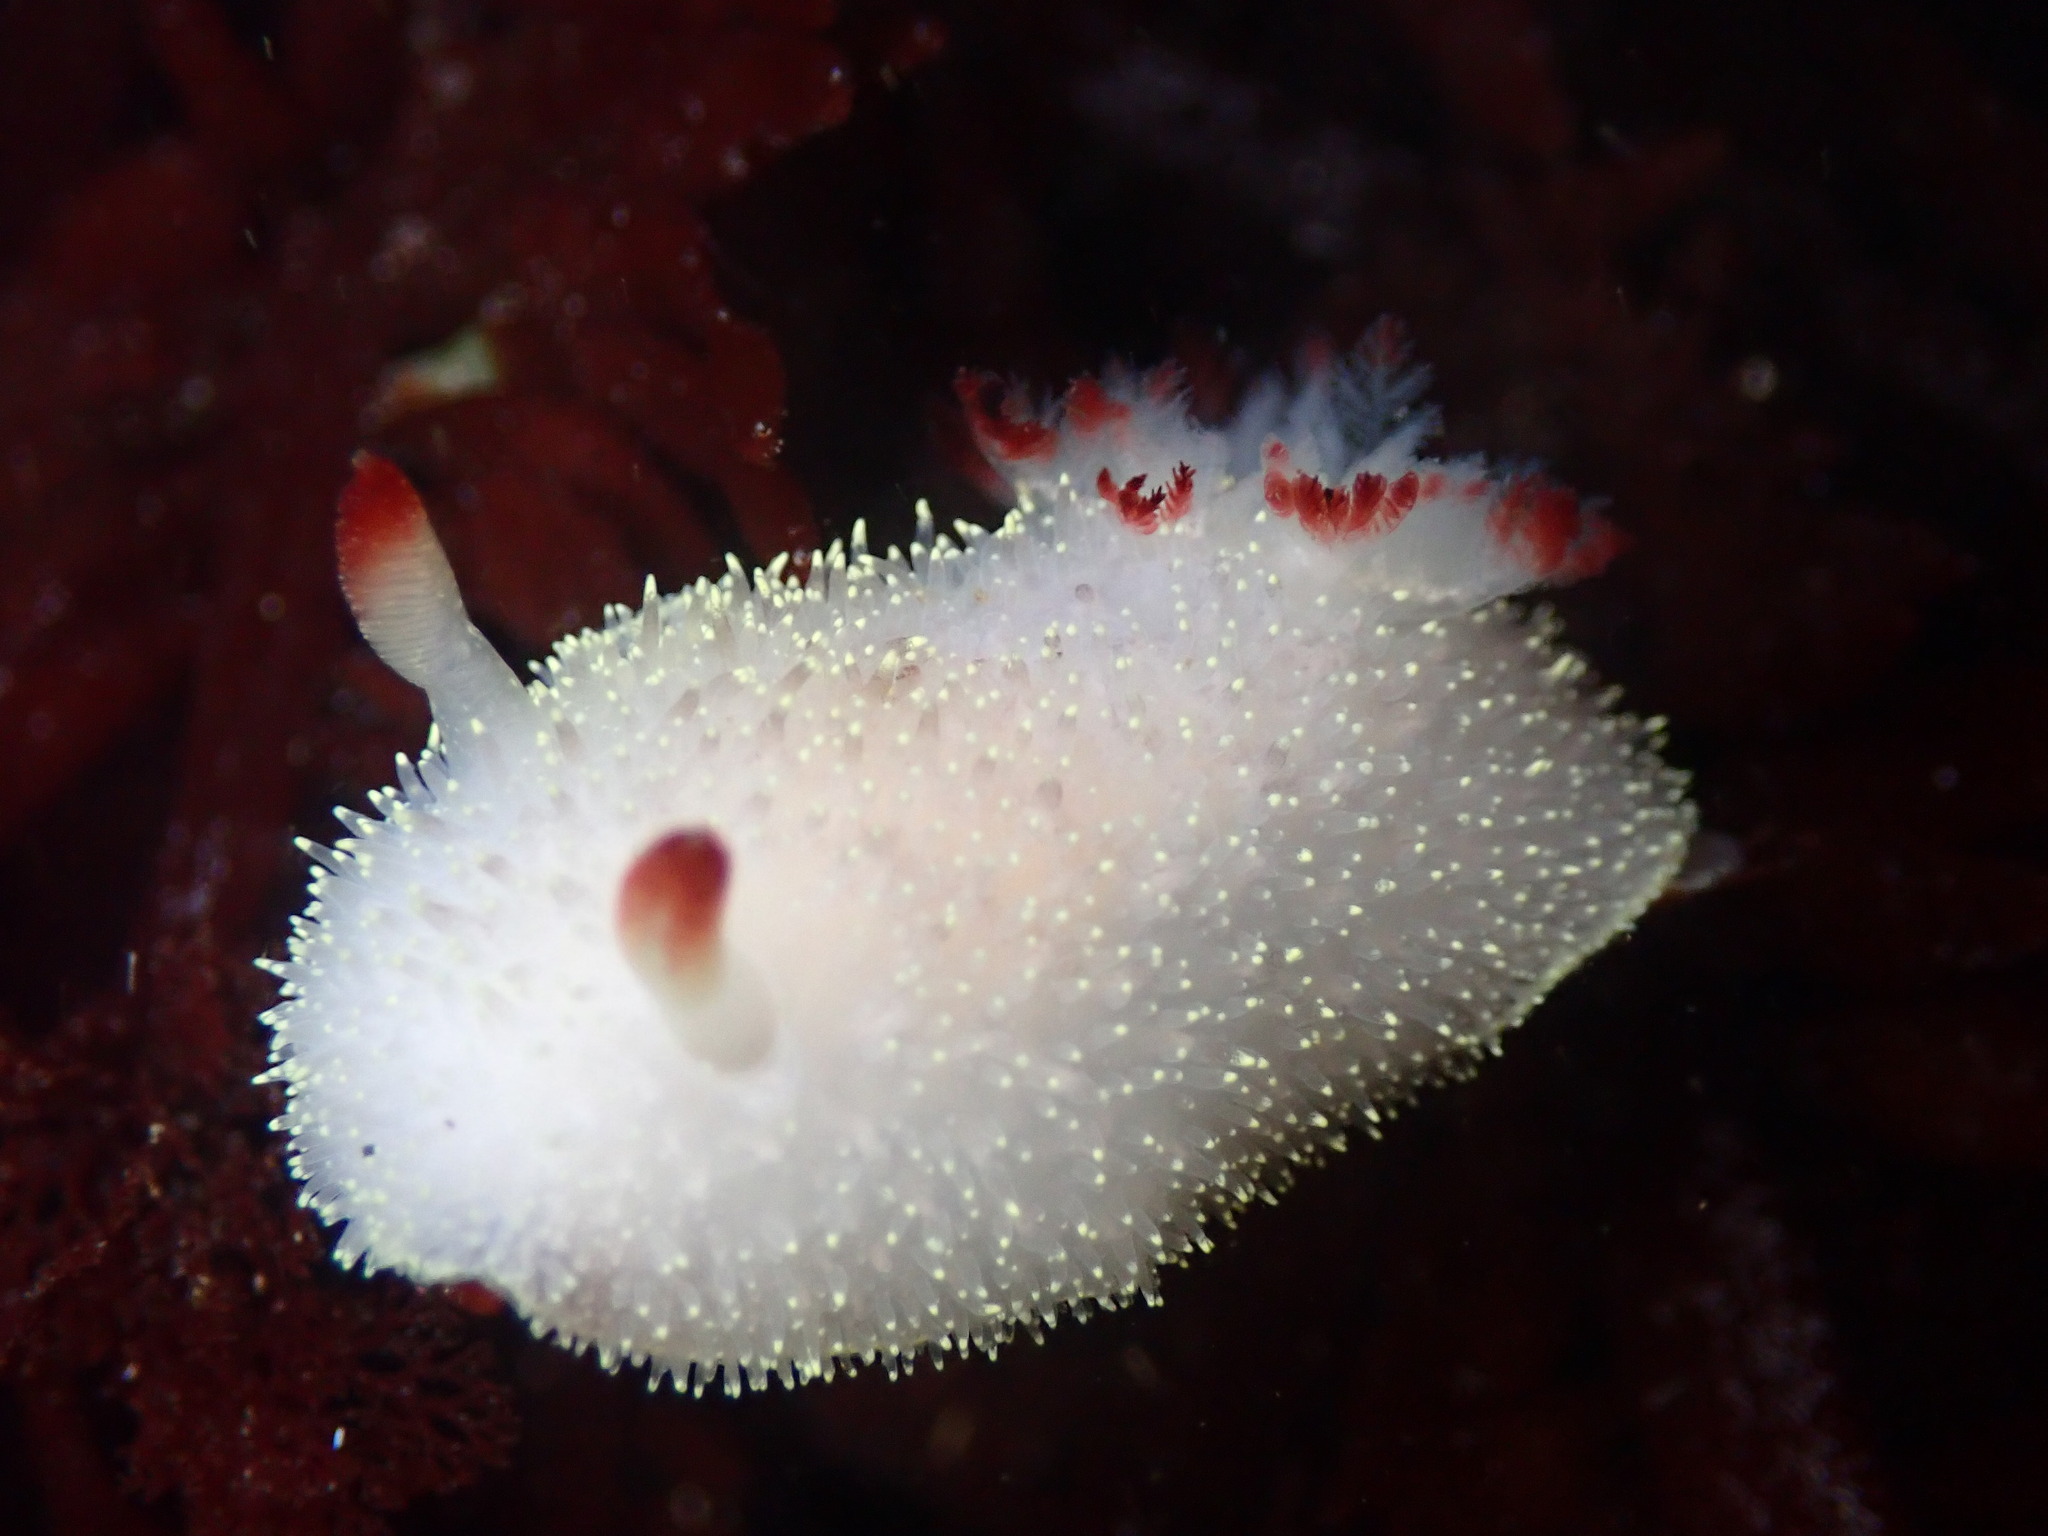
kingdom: Animalia
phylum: Mollusca
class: Gastropoda
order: Nudibranchia
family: Onchidorididae
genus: Acanthodoris
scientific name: Acanthodoris nanaimoensis
